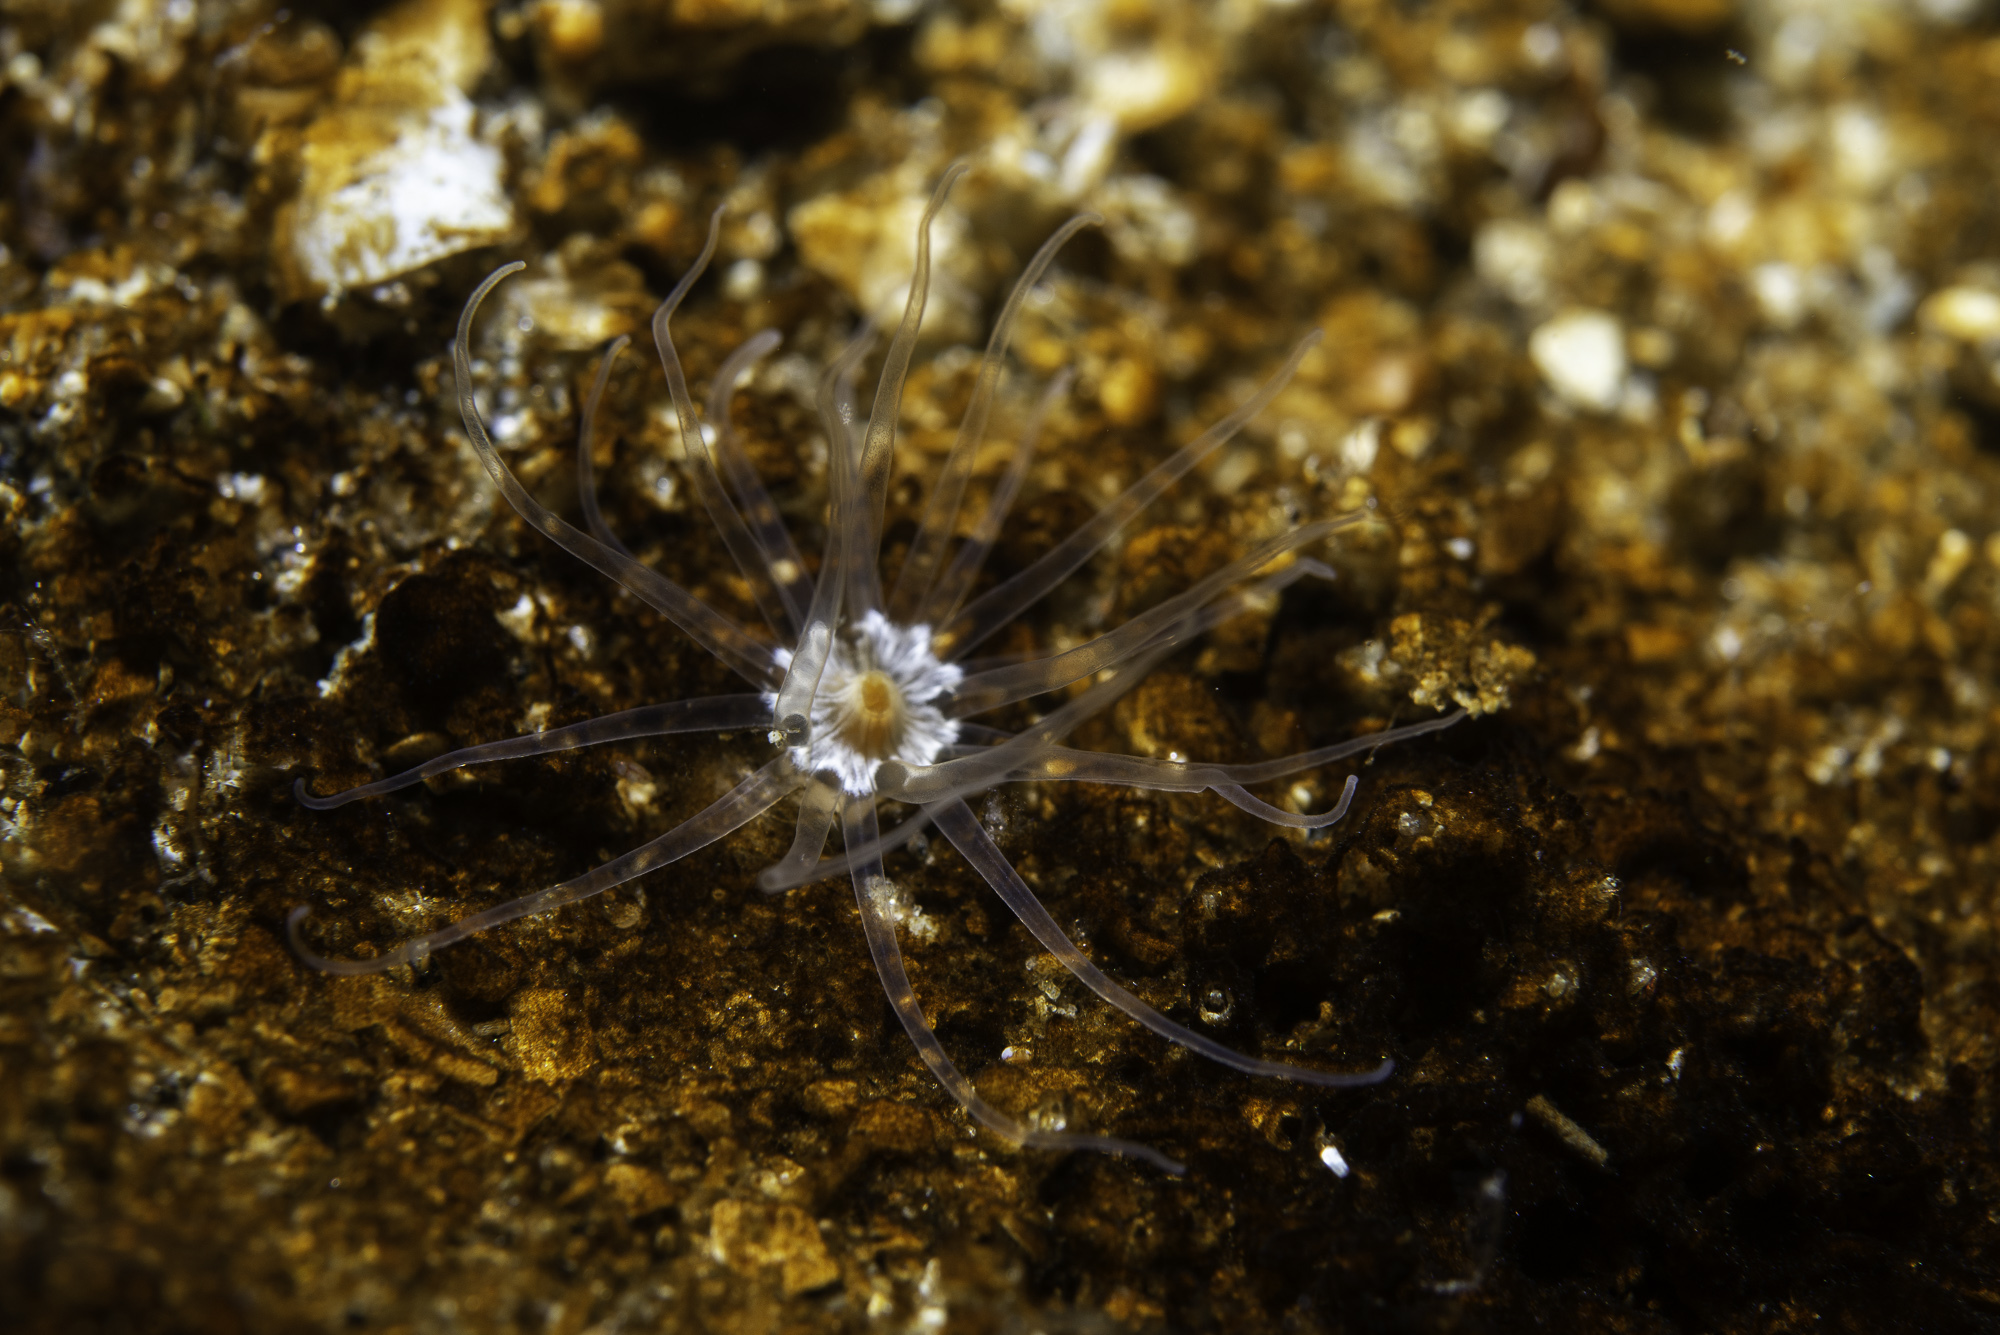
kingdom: Animalia
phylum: Cnidaria
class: Anthozoa
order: Actiniaria
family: Edwardsiidae
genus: Edwardsia
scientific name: Edwardsia timida
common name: Timid burrowing anemone
